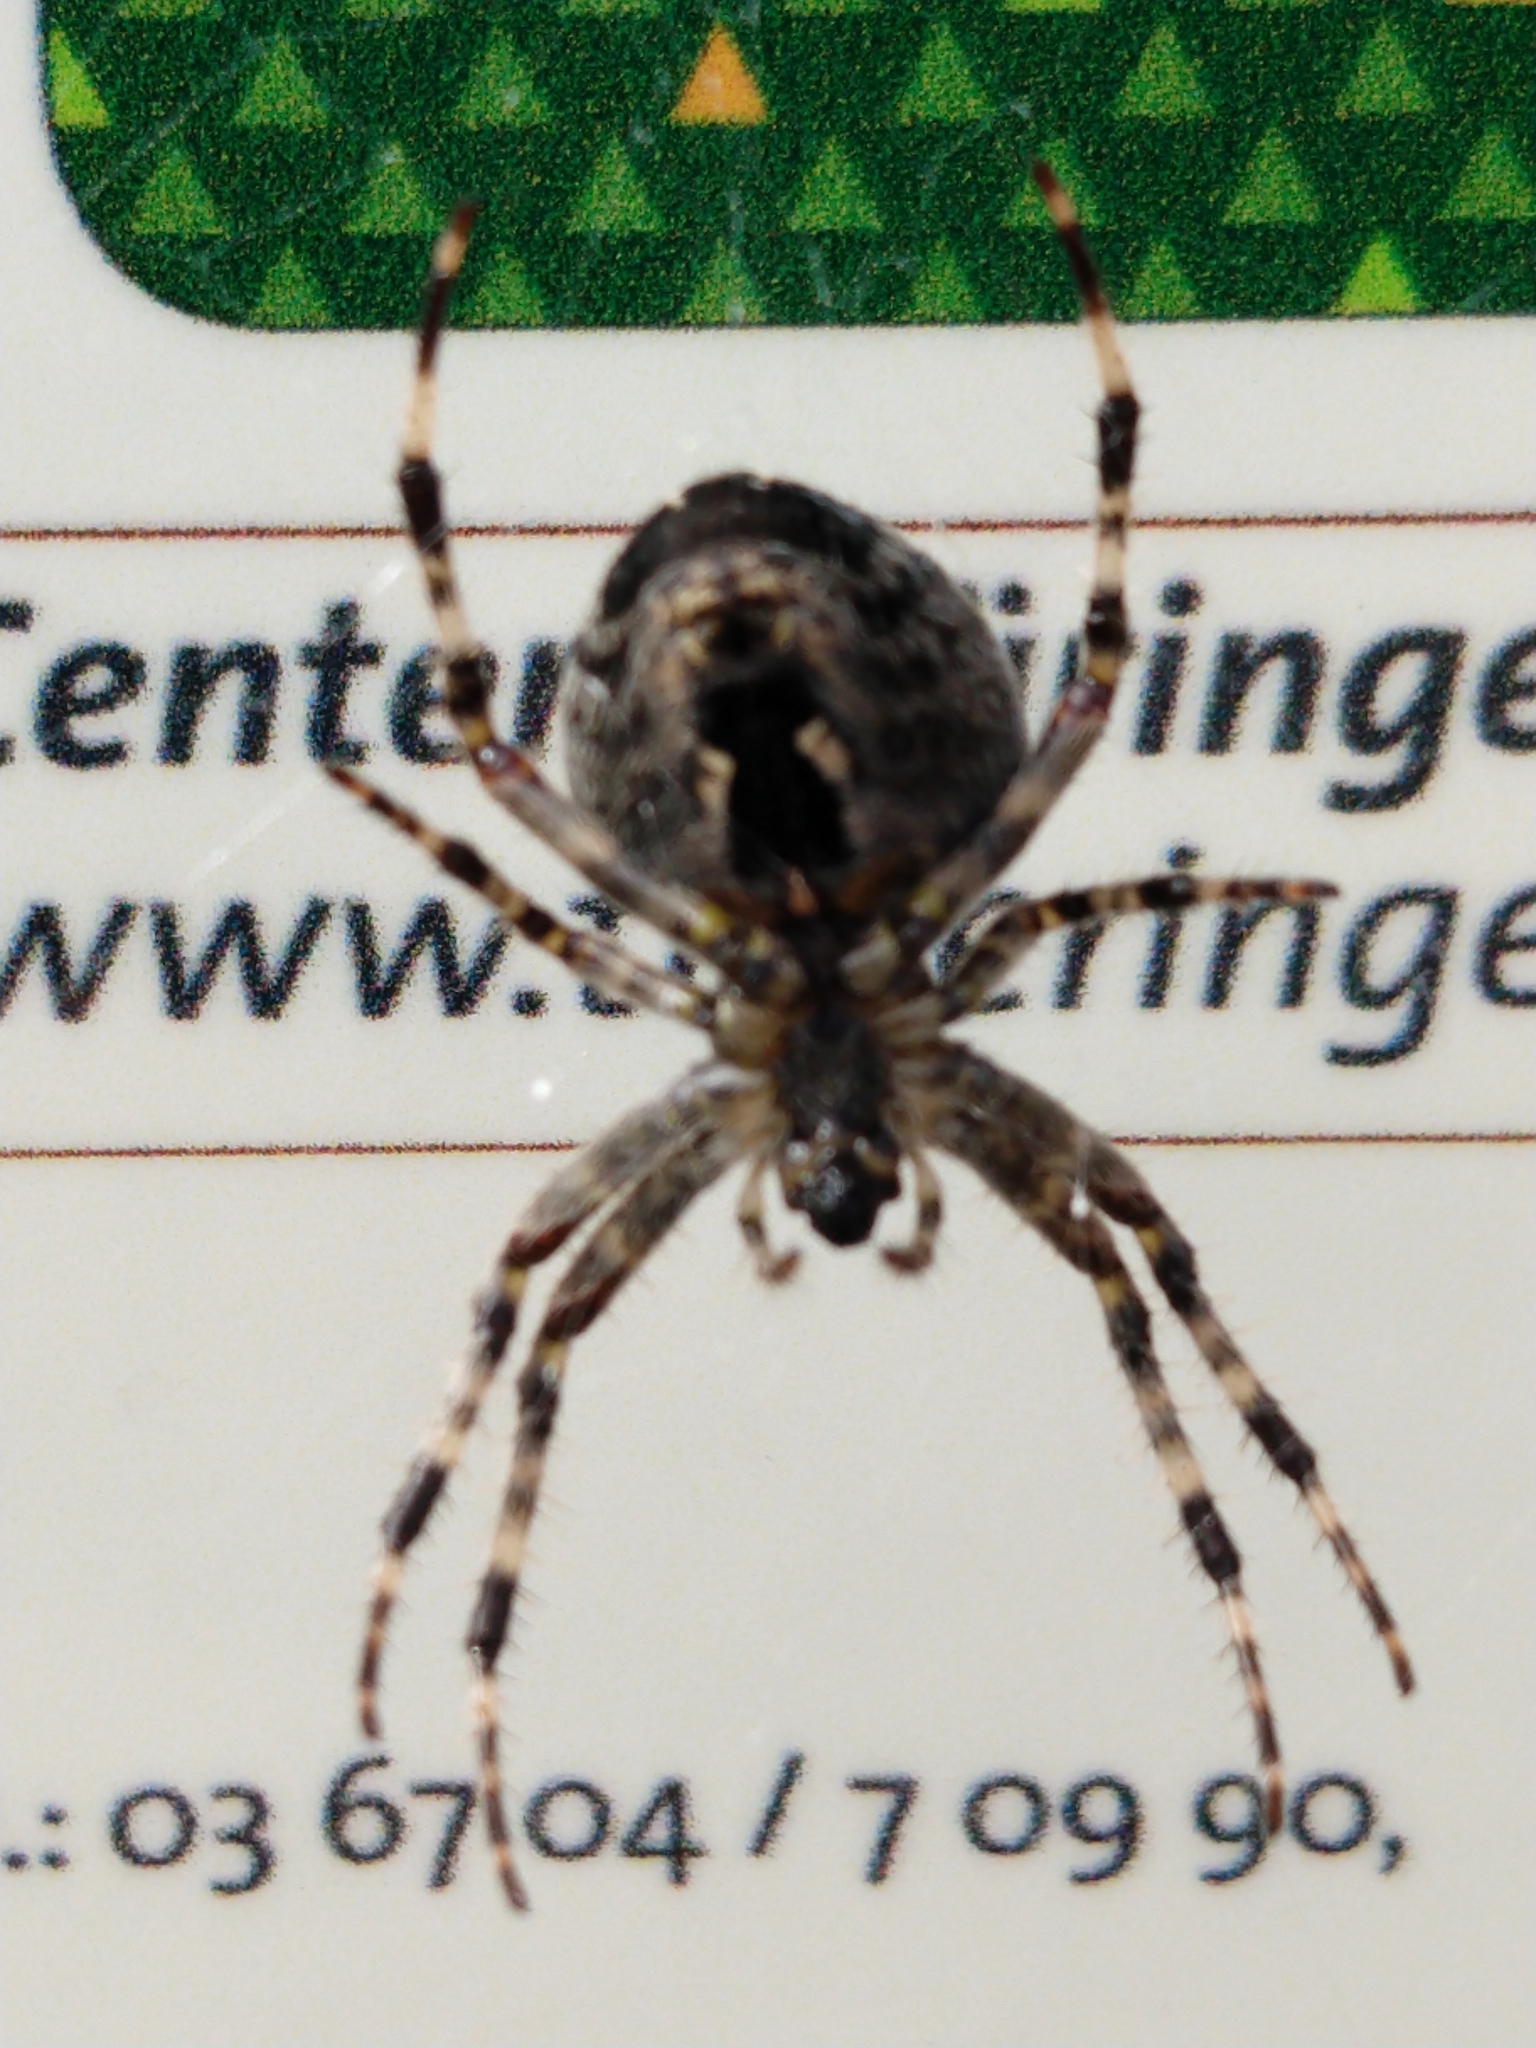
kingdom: Animalia
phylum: Arthropoda
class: Arachnida
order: Araneae
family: Araneidae
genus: Araneus
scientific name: Araneus diadematus
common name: Cross orbweaver
